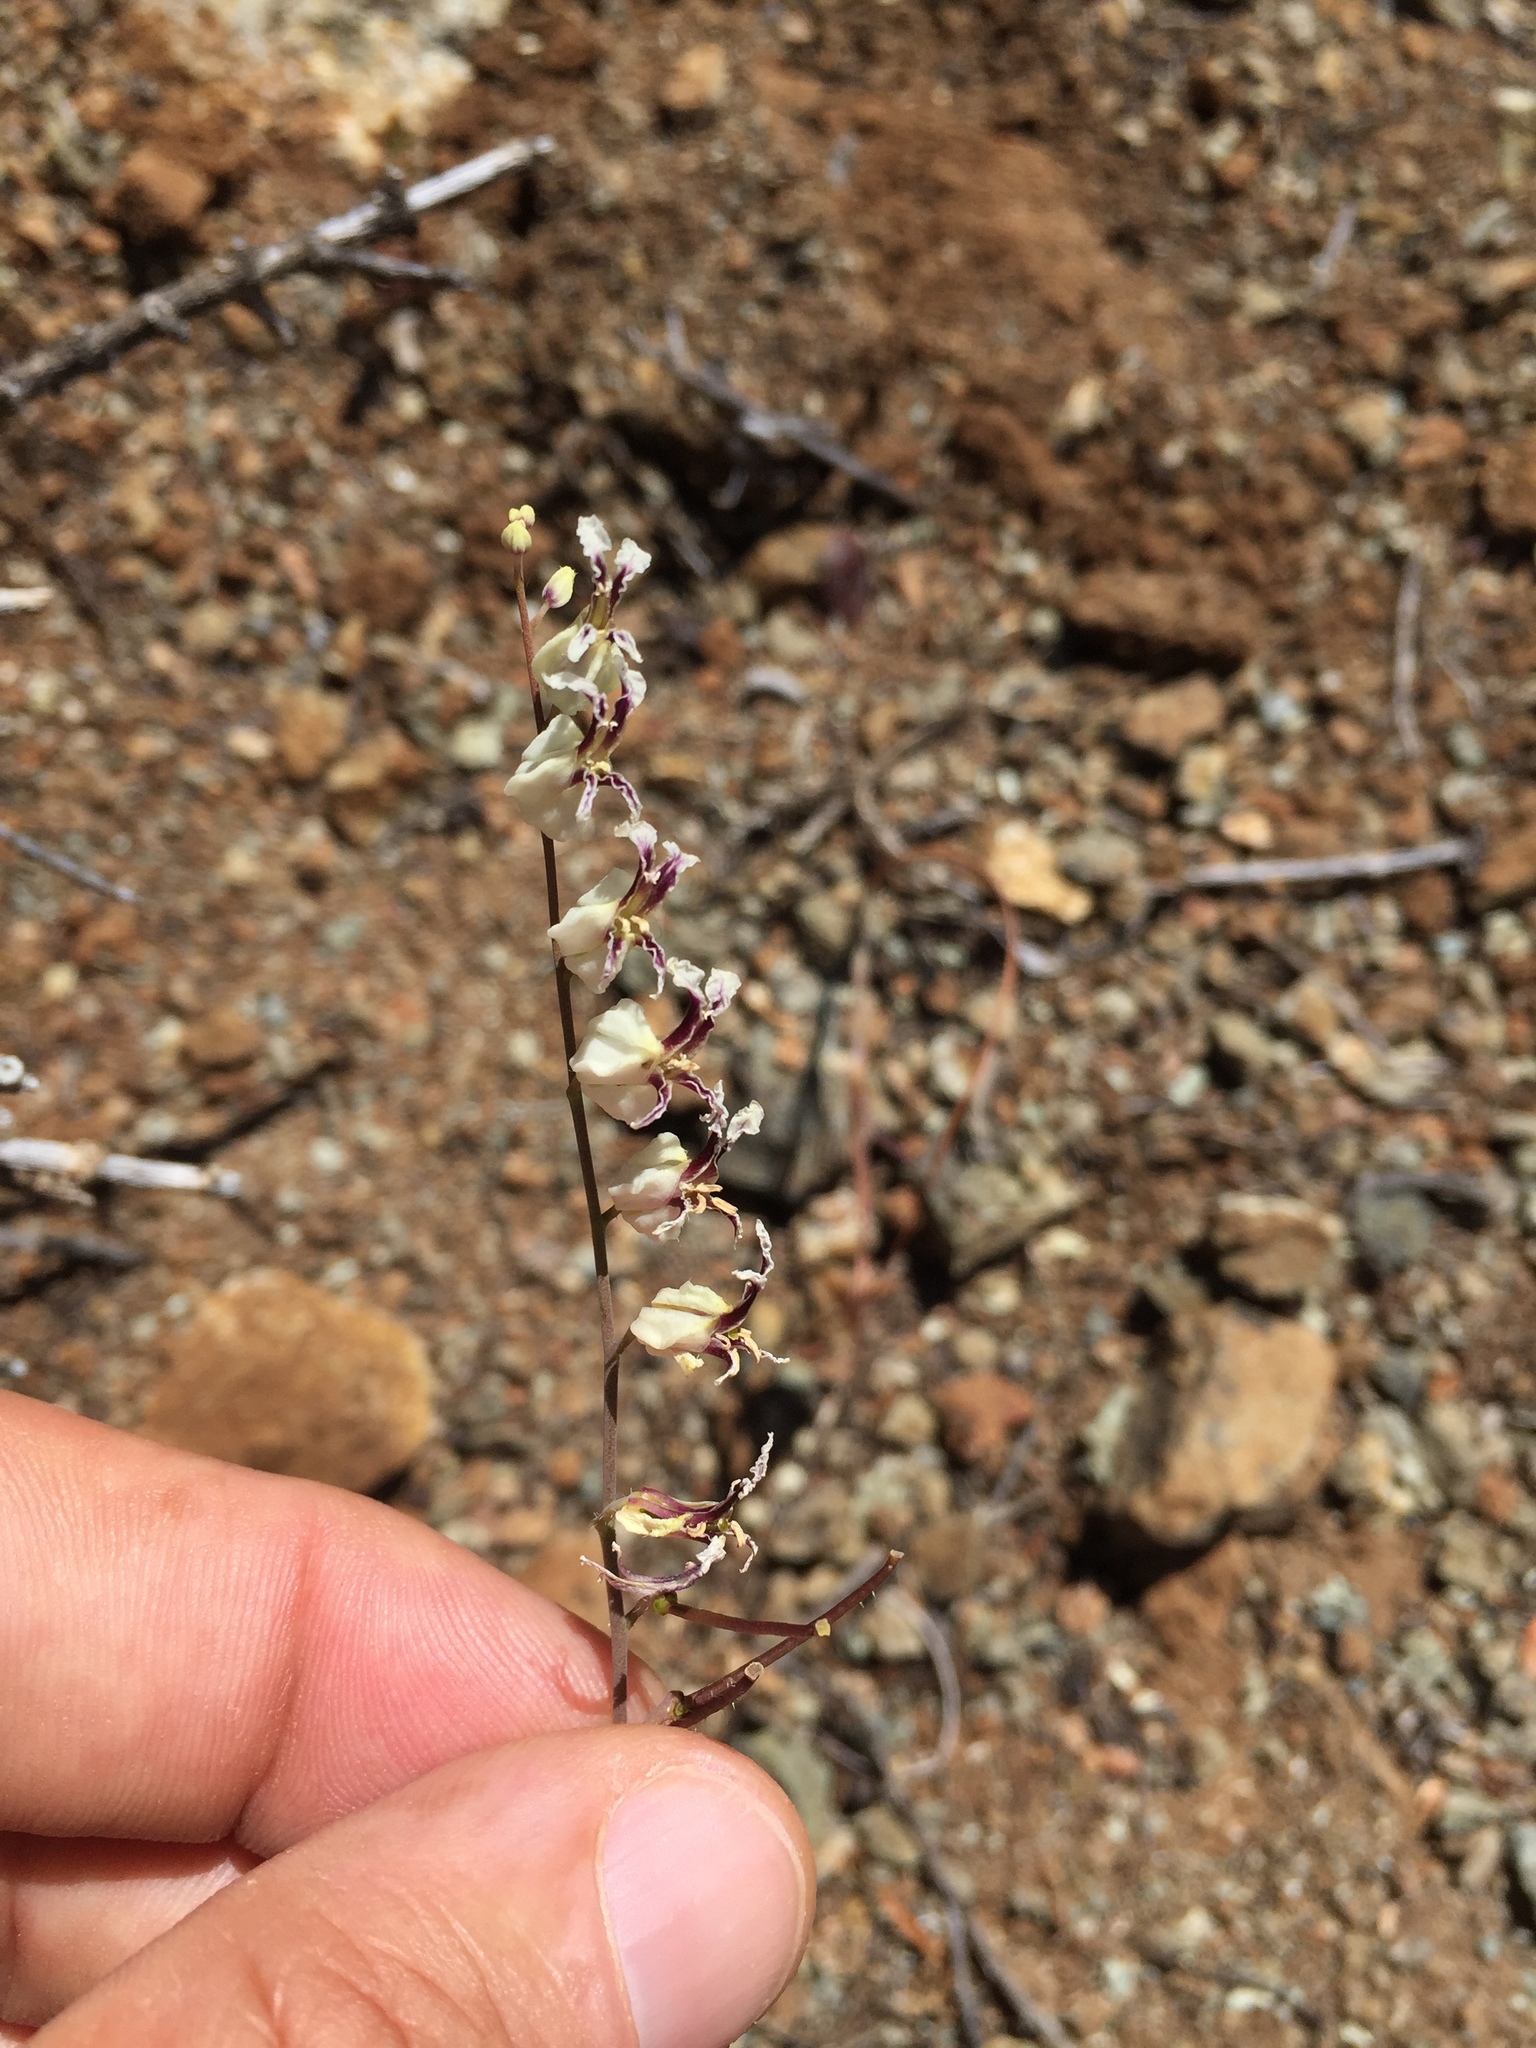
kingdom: Plantae
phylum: Tracheophyta
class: Magnoliopsida
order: Brassicales
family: Brassicaceae
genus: Streptanthus
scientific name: Streptanthus glandulosus
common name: Jewel-flower
